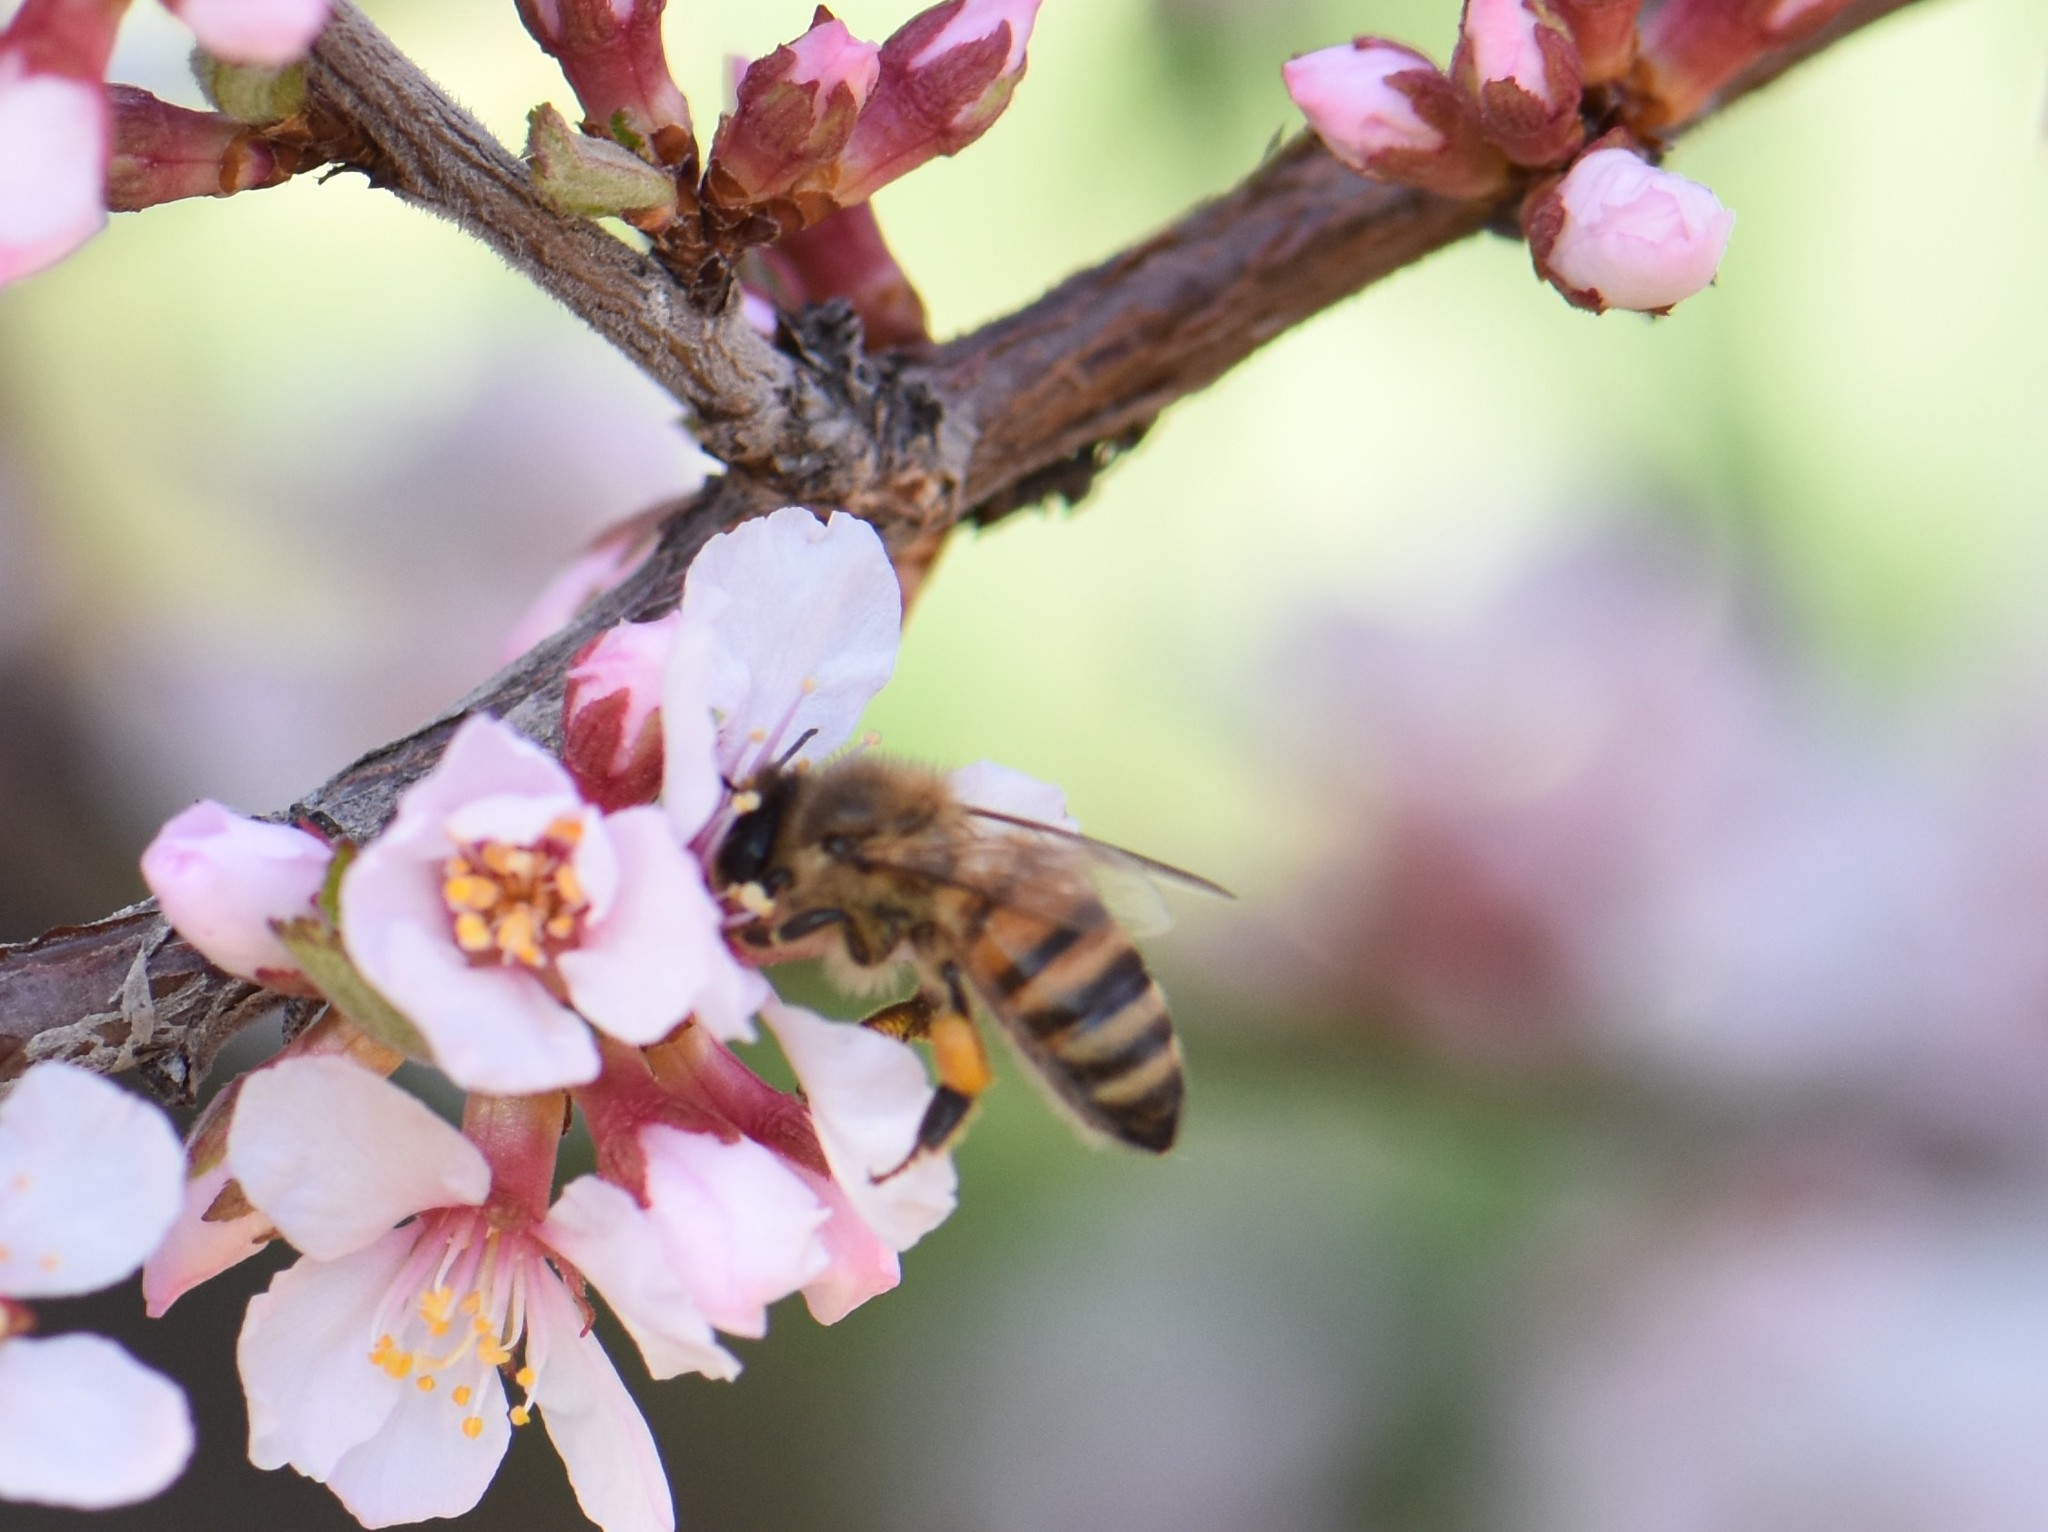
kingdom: Animalia
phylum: Arthropoda
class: Insecta
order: Hymenoptera
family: Apidae
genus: Apis
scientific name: Apis mellifera
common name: Honey bee
